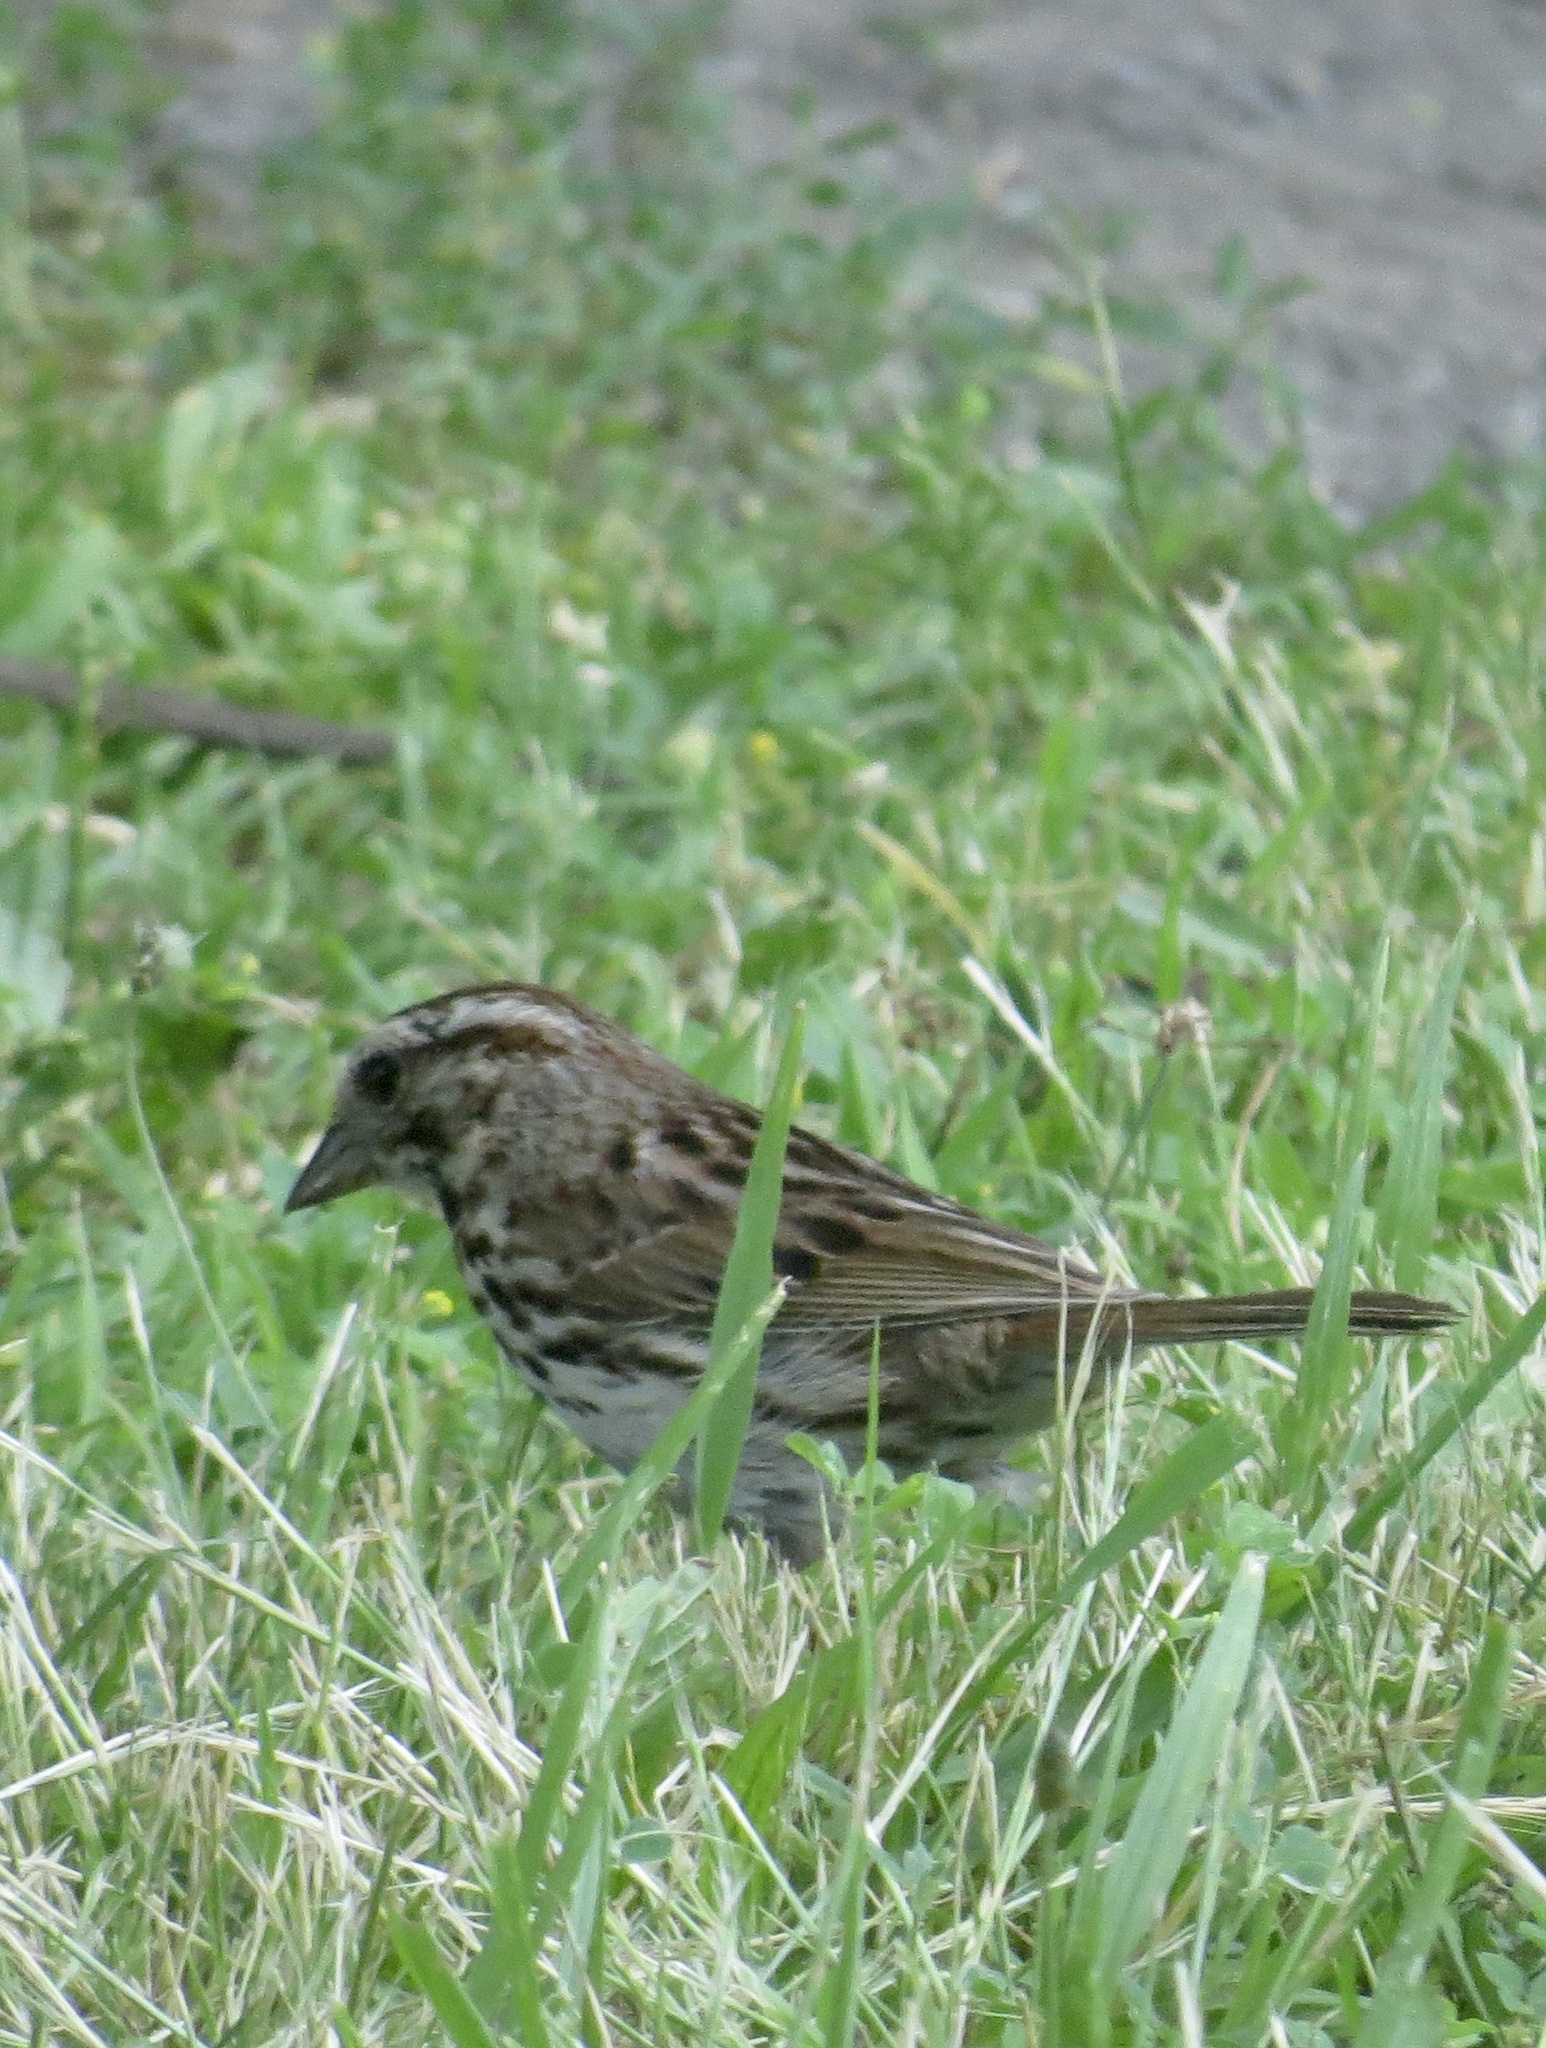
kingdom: Animalia
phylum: Chordata
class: Aves
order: Passeriformes
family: Passerellidae
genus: Melospiza
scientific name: Melospiza melodia
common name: Song sparrow
